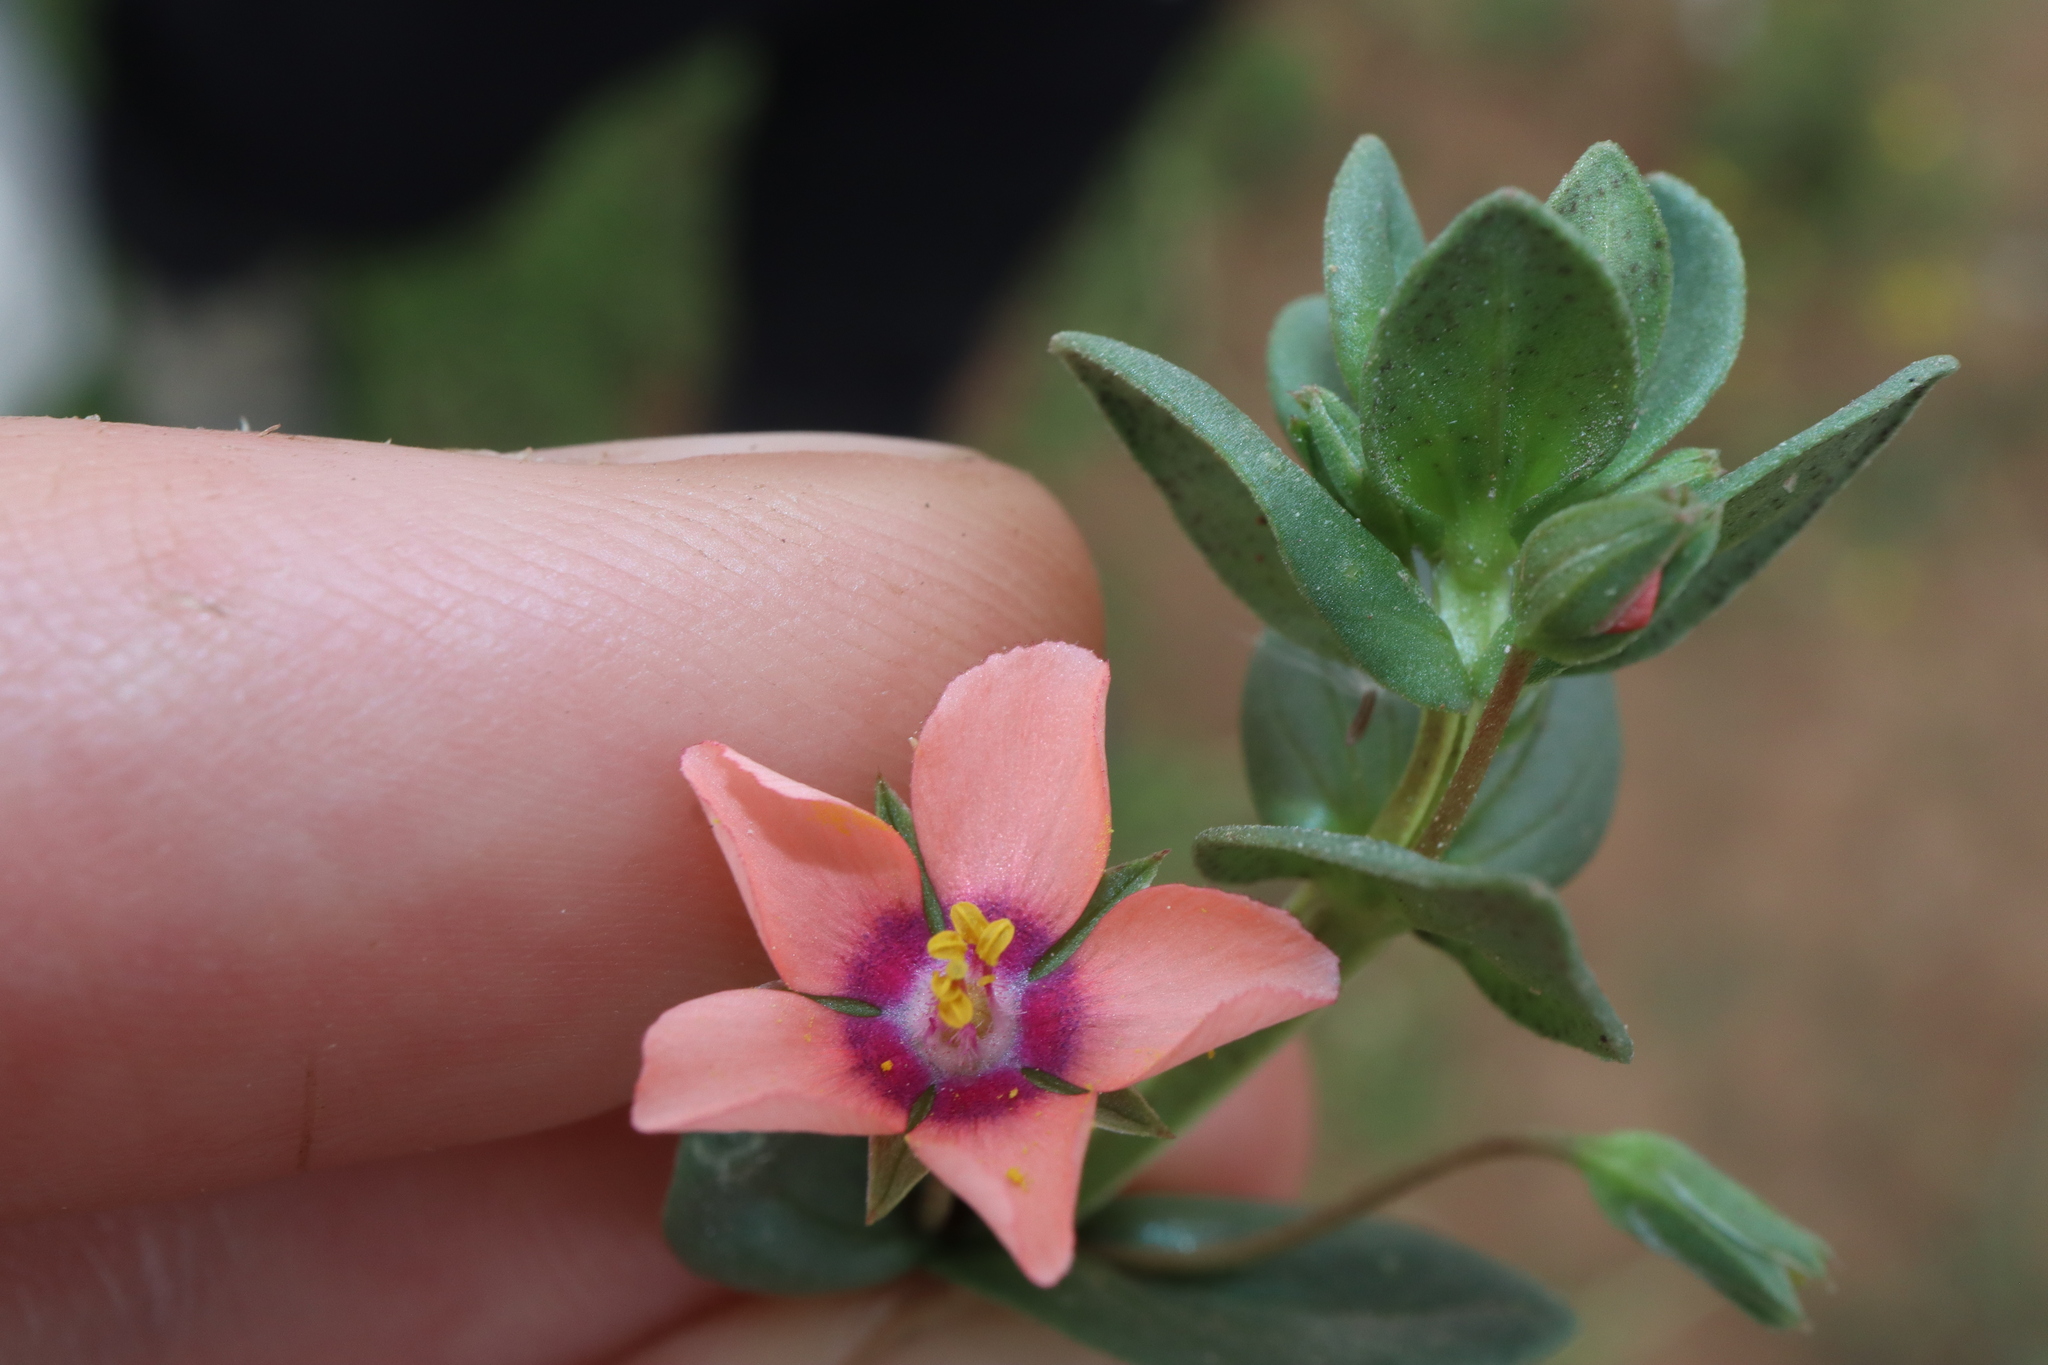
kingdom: Plantae
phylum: Tracheophyta
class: Magnoliopsida
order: Ericales
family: Primulaceae
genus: Lysimachia
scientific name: Lysimachia arvensis
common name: Scarlet pimpernel
